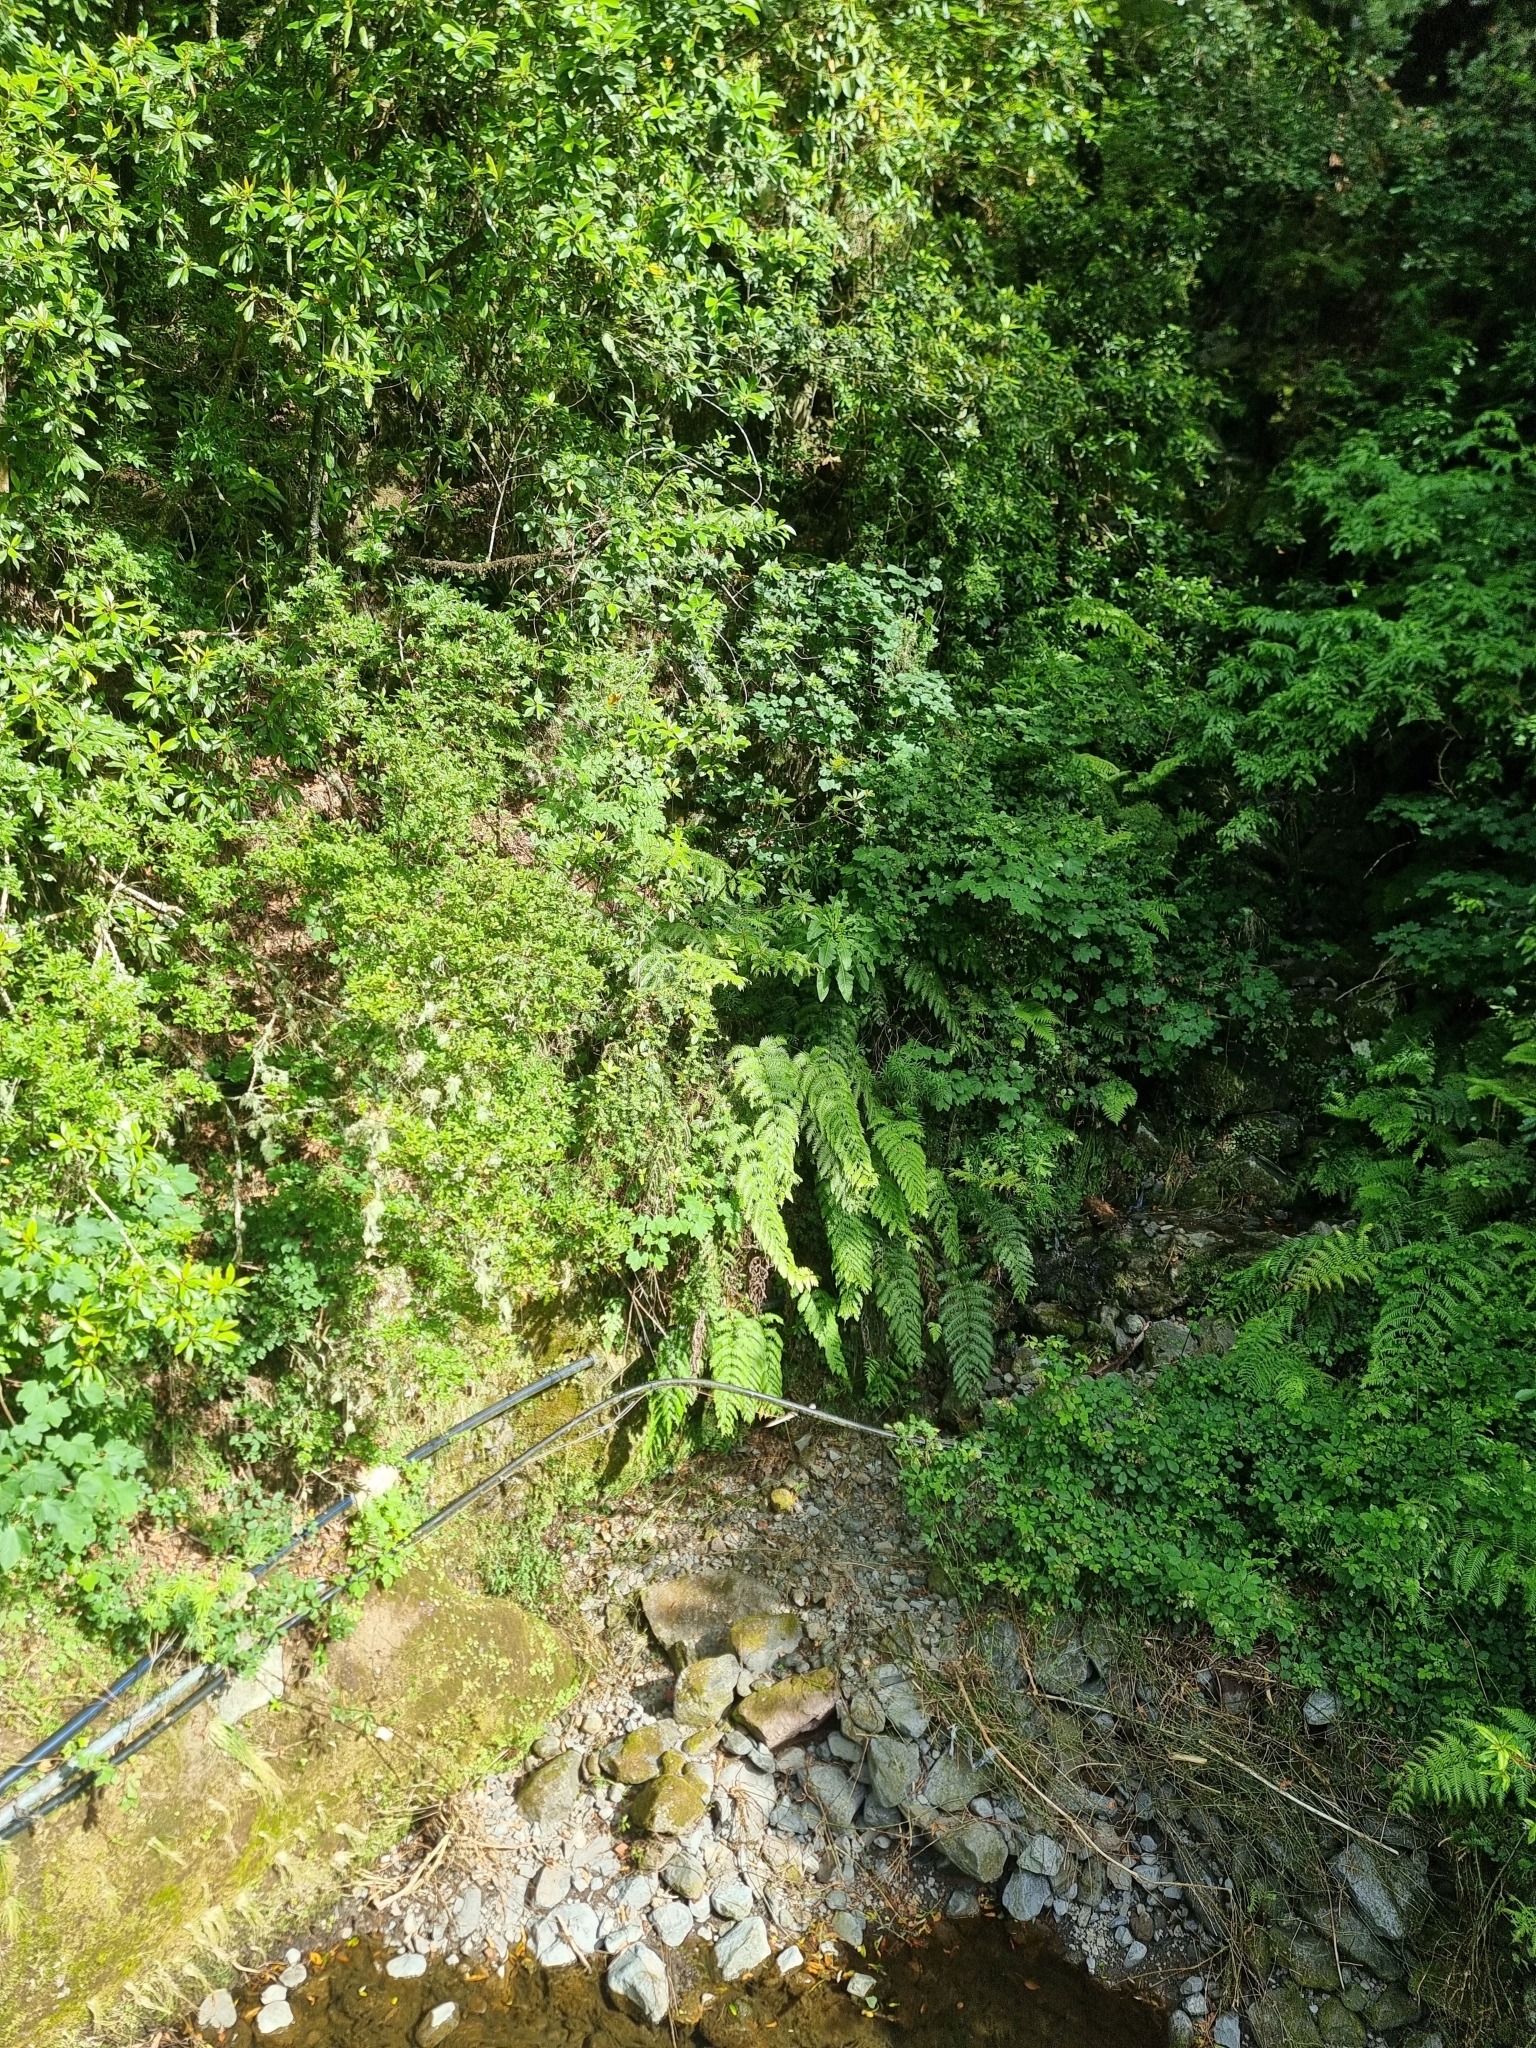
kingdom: Plantae
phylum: Tracheophyta
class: Polypodiopsida
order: Polypodiales
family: Blechnaceae
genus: Woodwardia
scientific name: Woodwardia radicans
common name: Rooting chainfern
